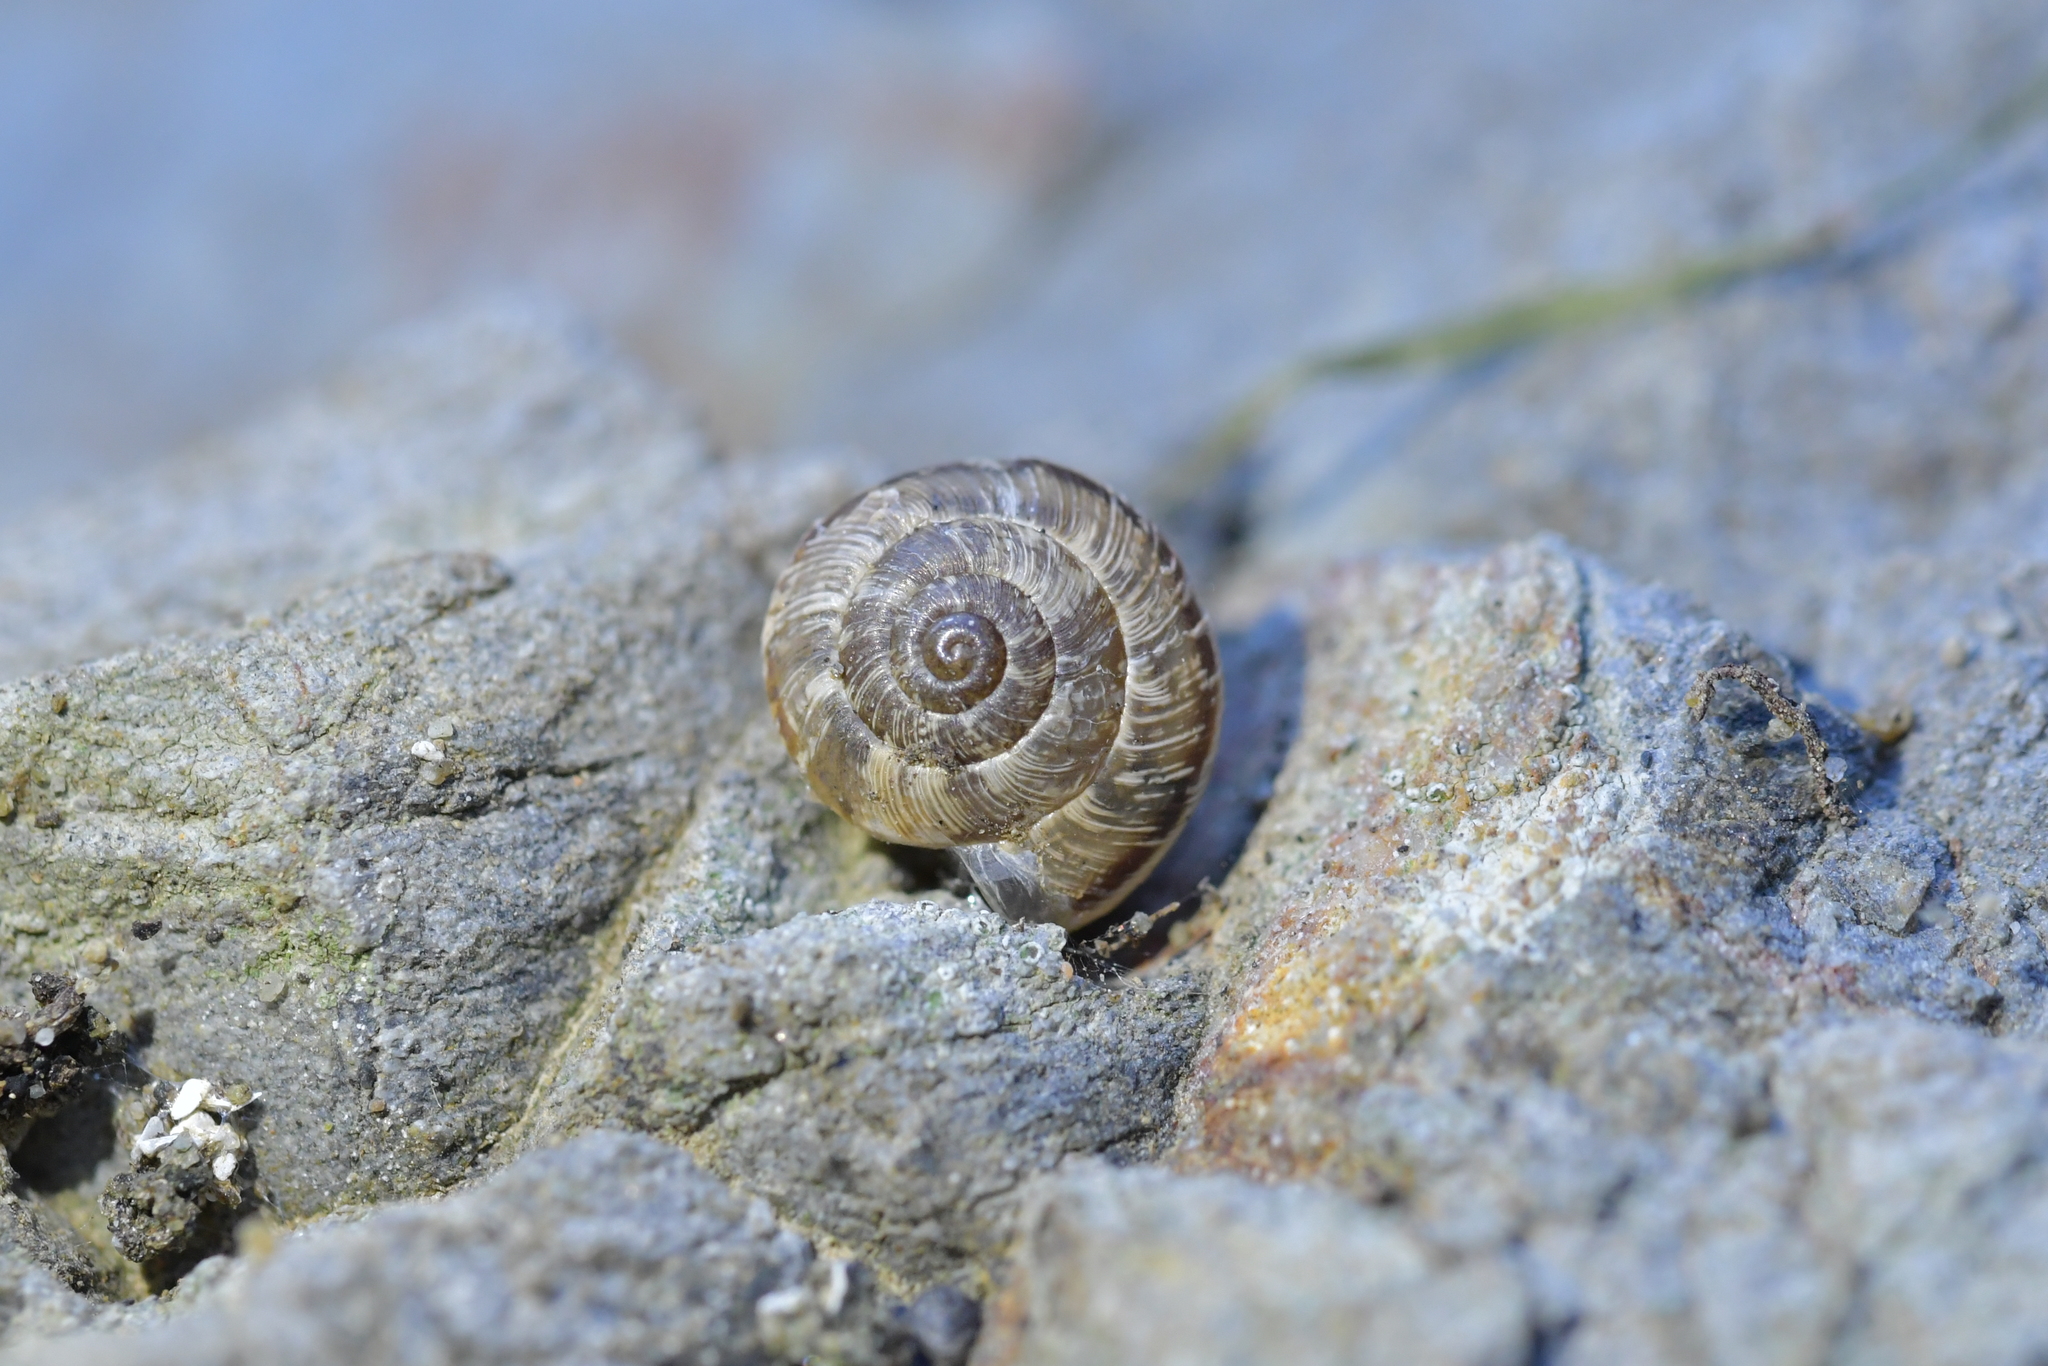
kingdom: Animalia
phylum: Mollusca
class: Gastropoda
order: Stylommatophora
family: Geomitridae
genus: Xeroplexa
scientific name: Xeroplexa intersecta
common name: Wrinkled snail
